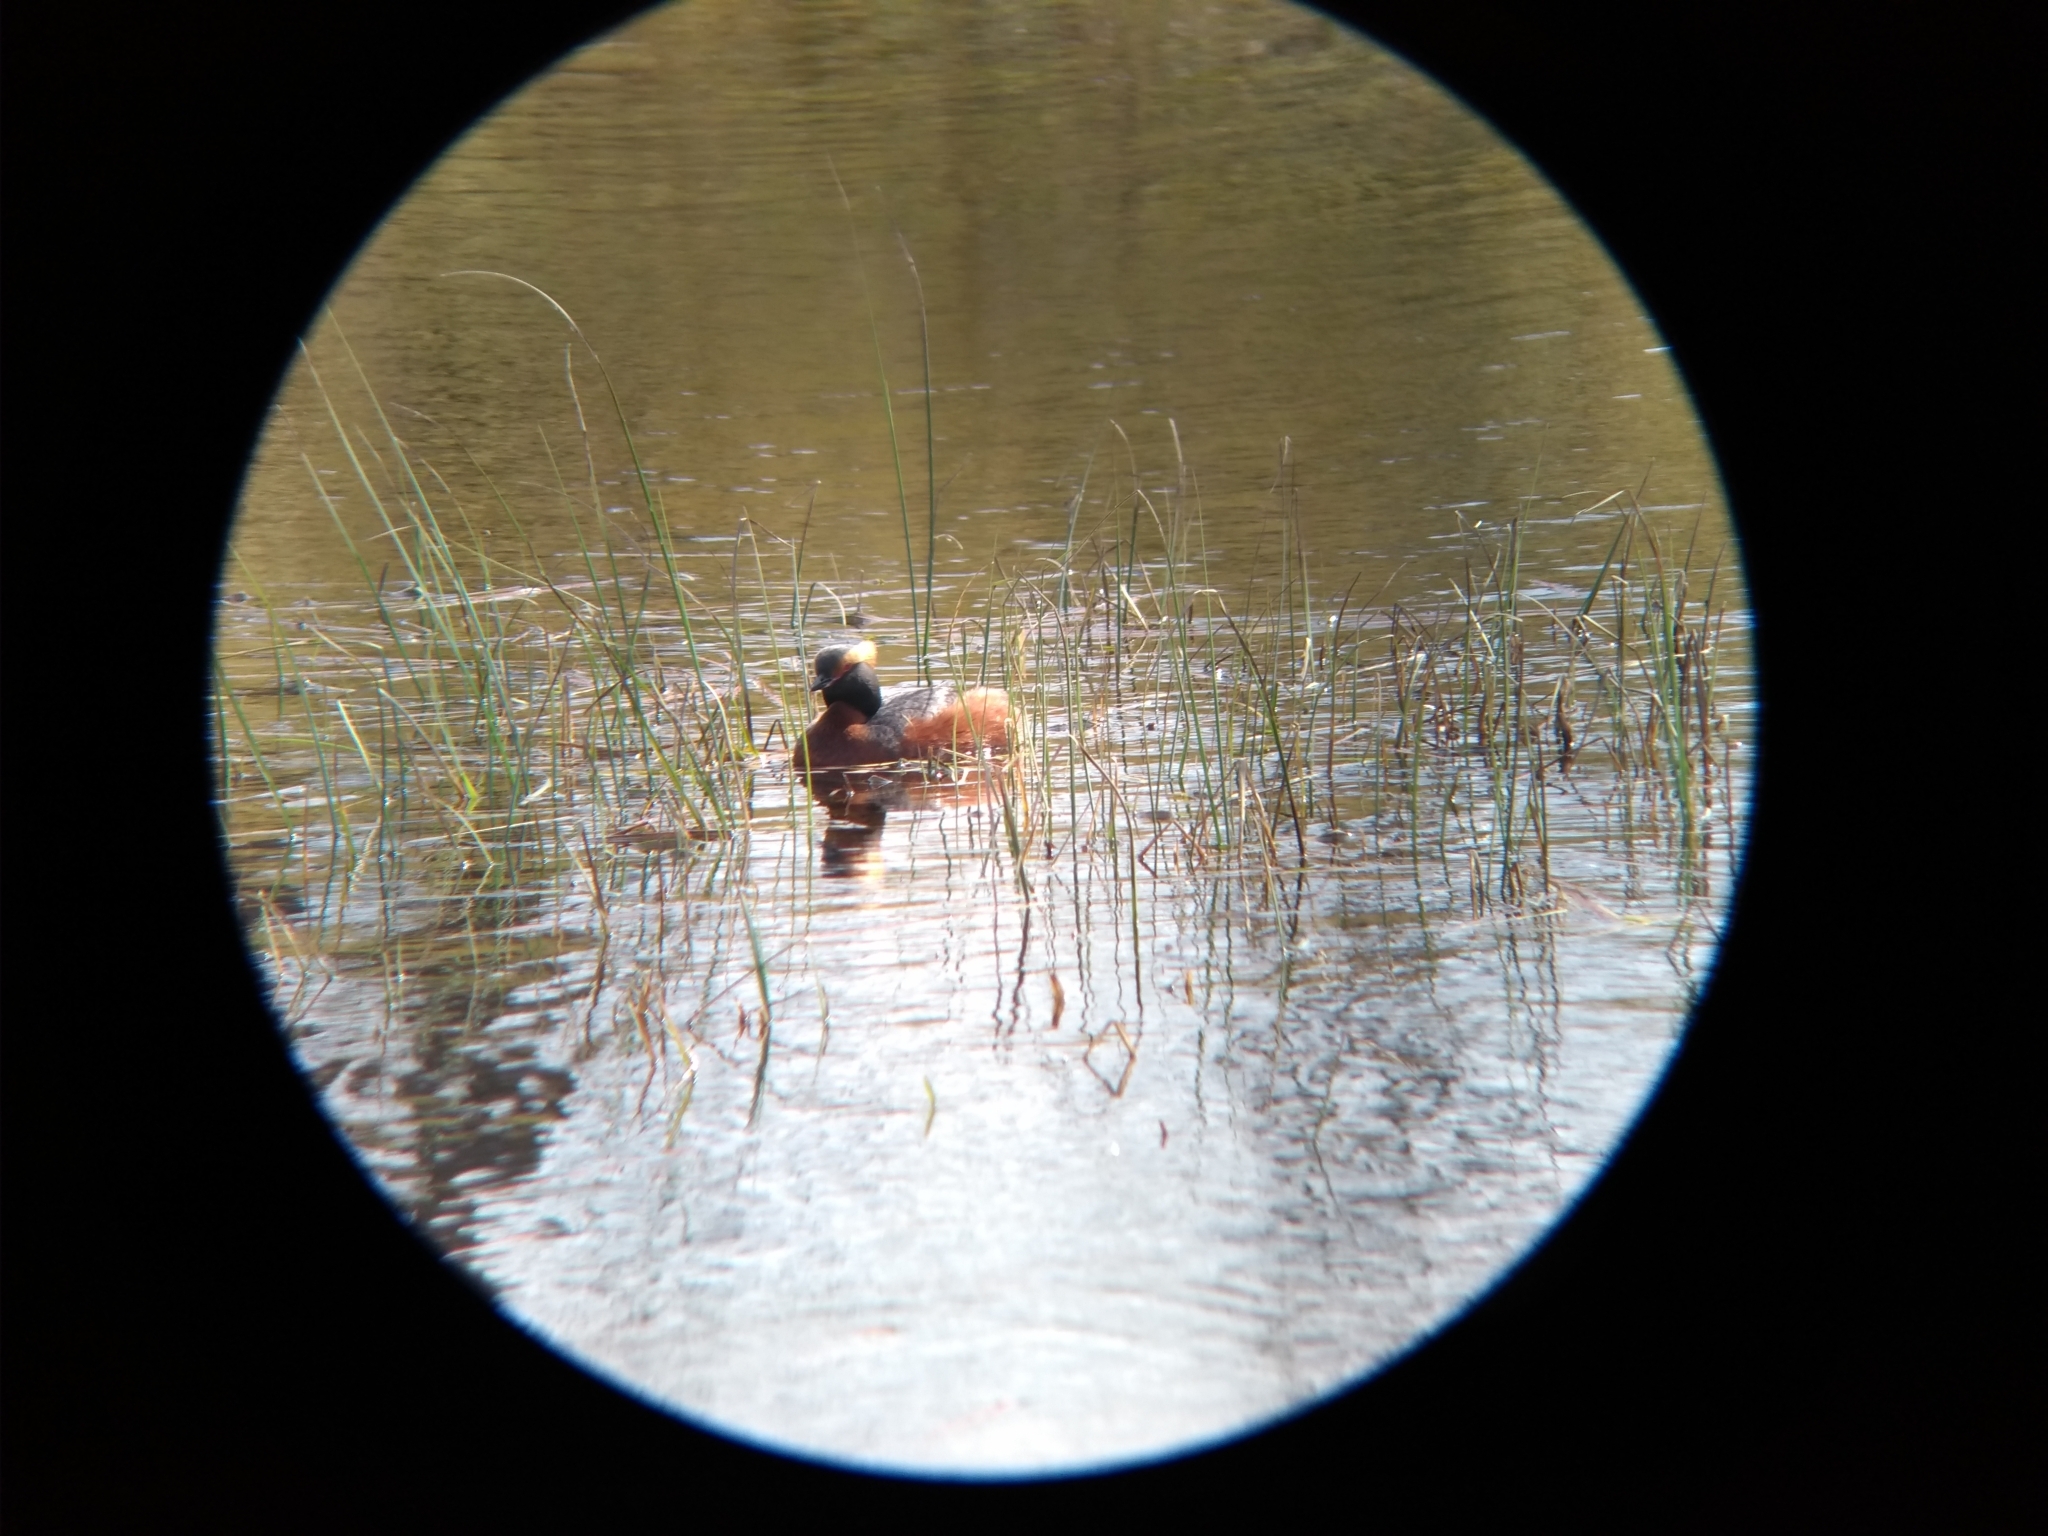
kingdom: Animalia
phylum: Chordata
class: Aves
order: Podicipediformes
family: Podicipedidae
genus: Podiceps
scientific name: Podiceps auritus
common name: Horned grebe
